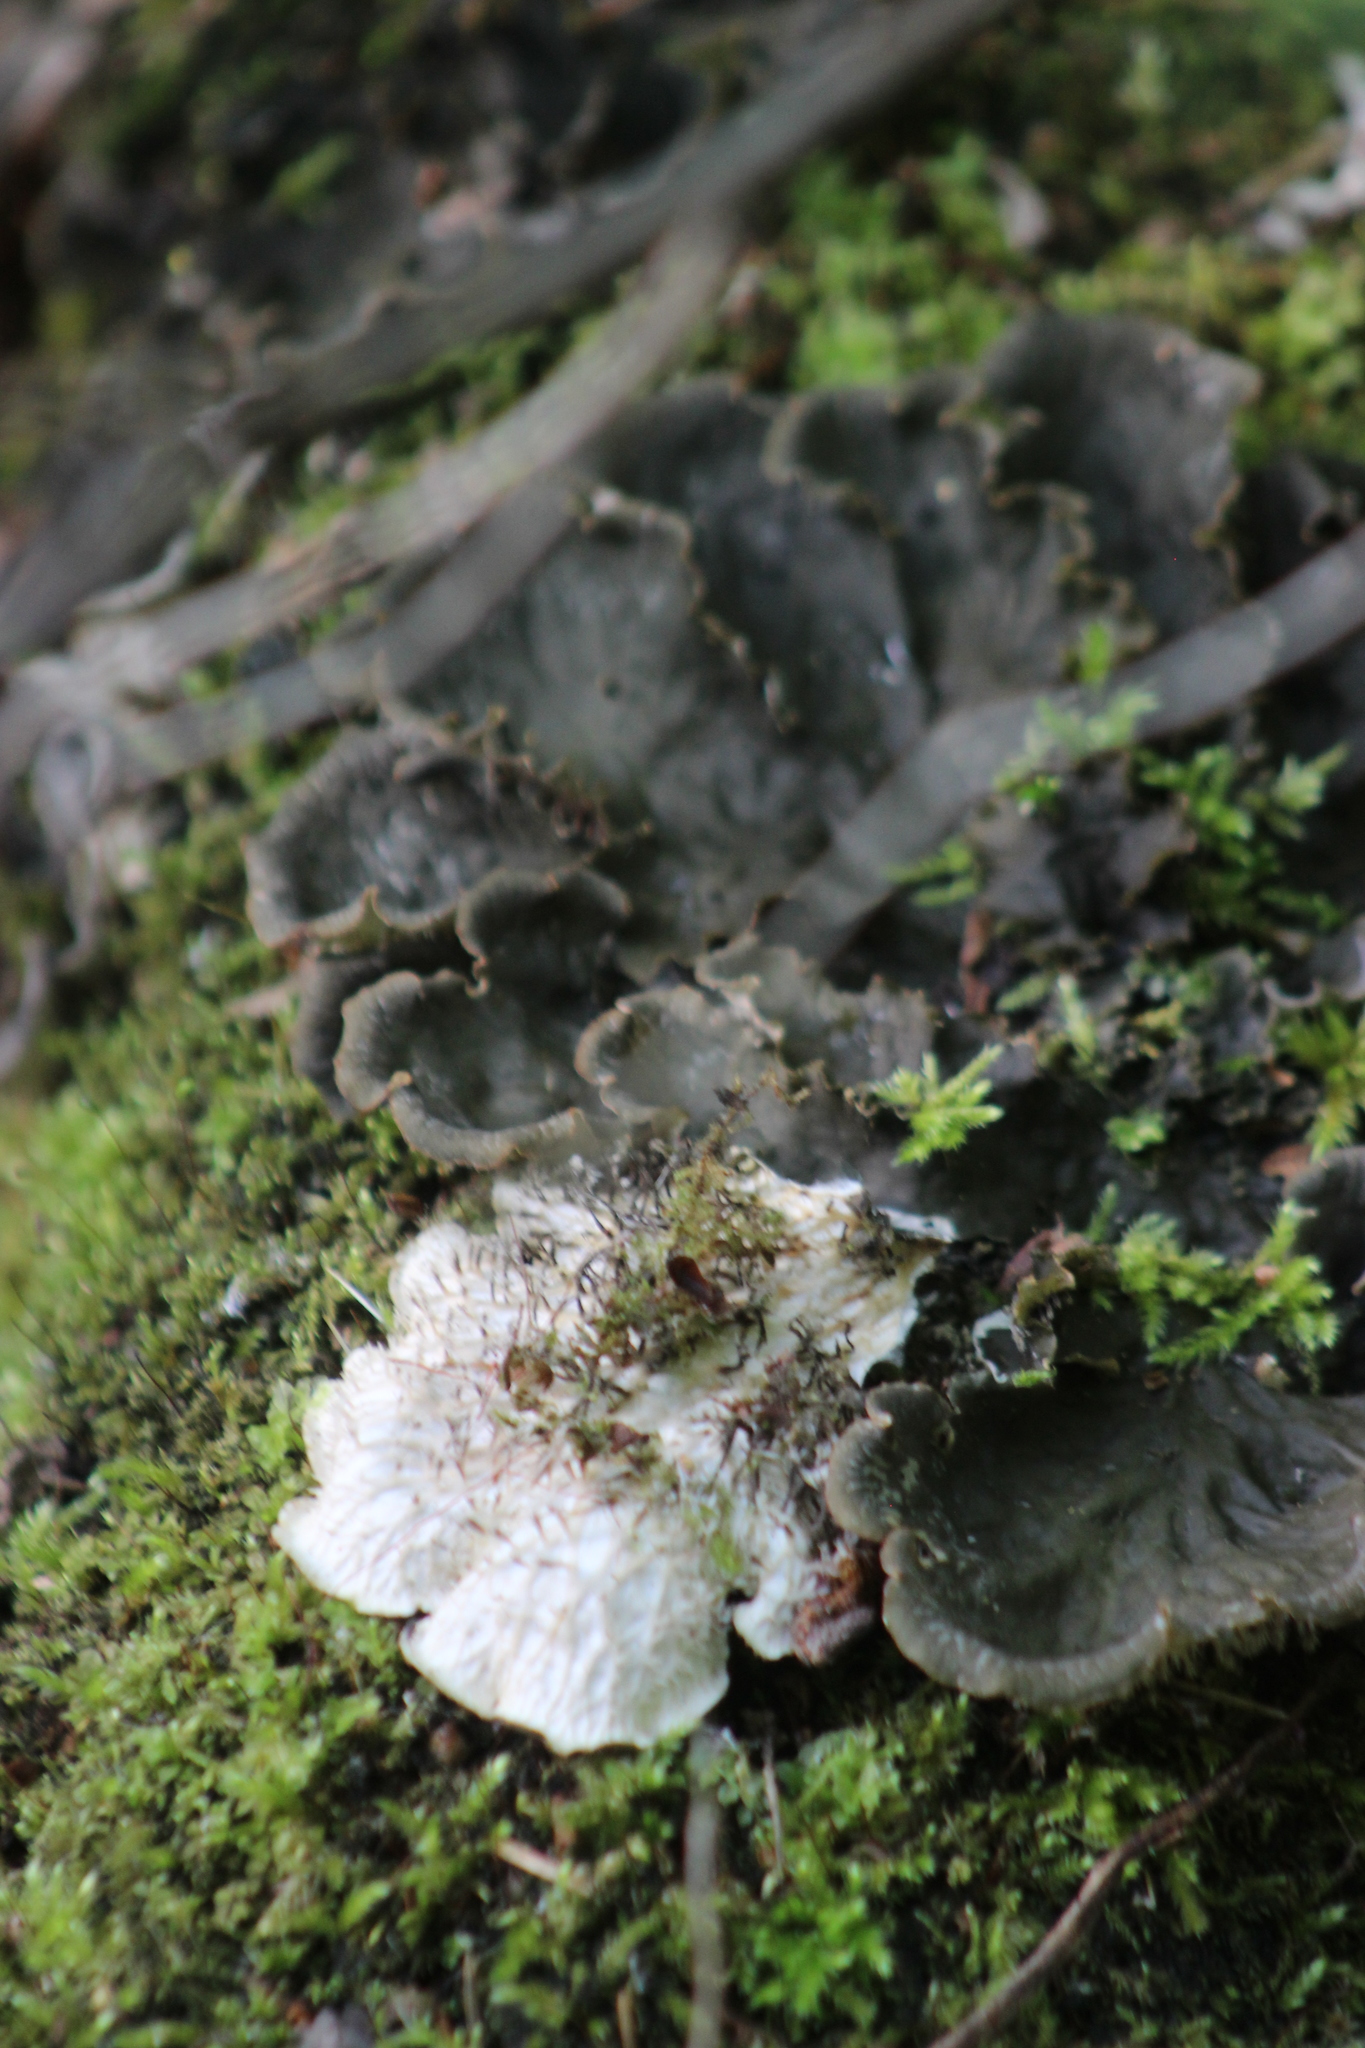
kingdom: Fungi
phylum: Ascomycota
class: Lecanoromycetes
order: Peltigerales
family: Peltigeraceae
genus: Peltigera
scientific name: Peltigera praetextata
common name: Scaly dog-lichen
